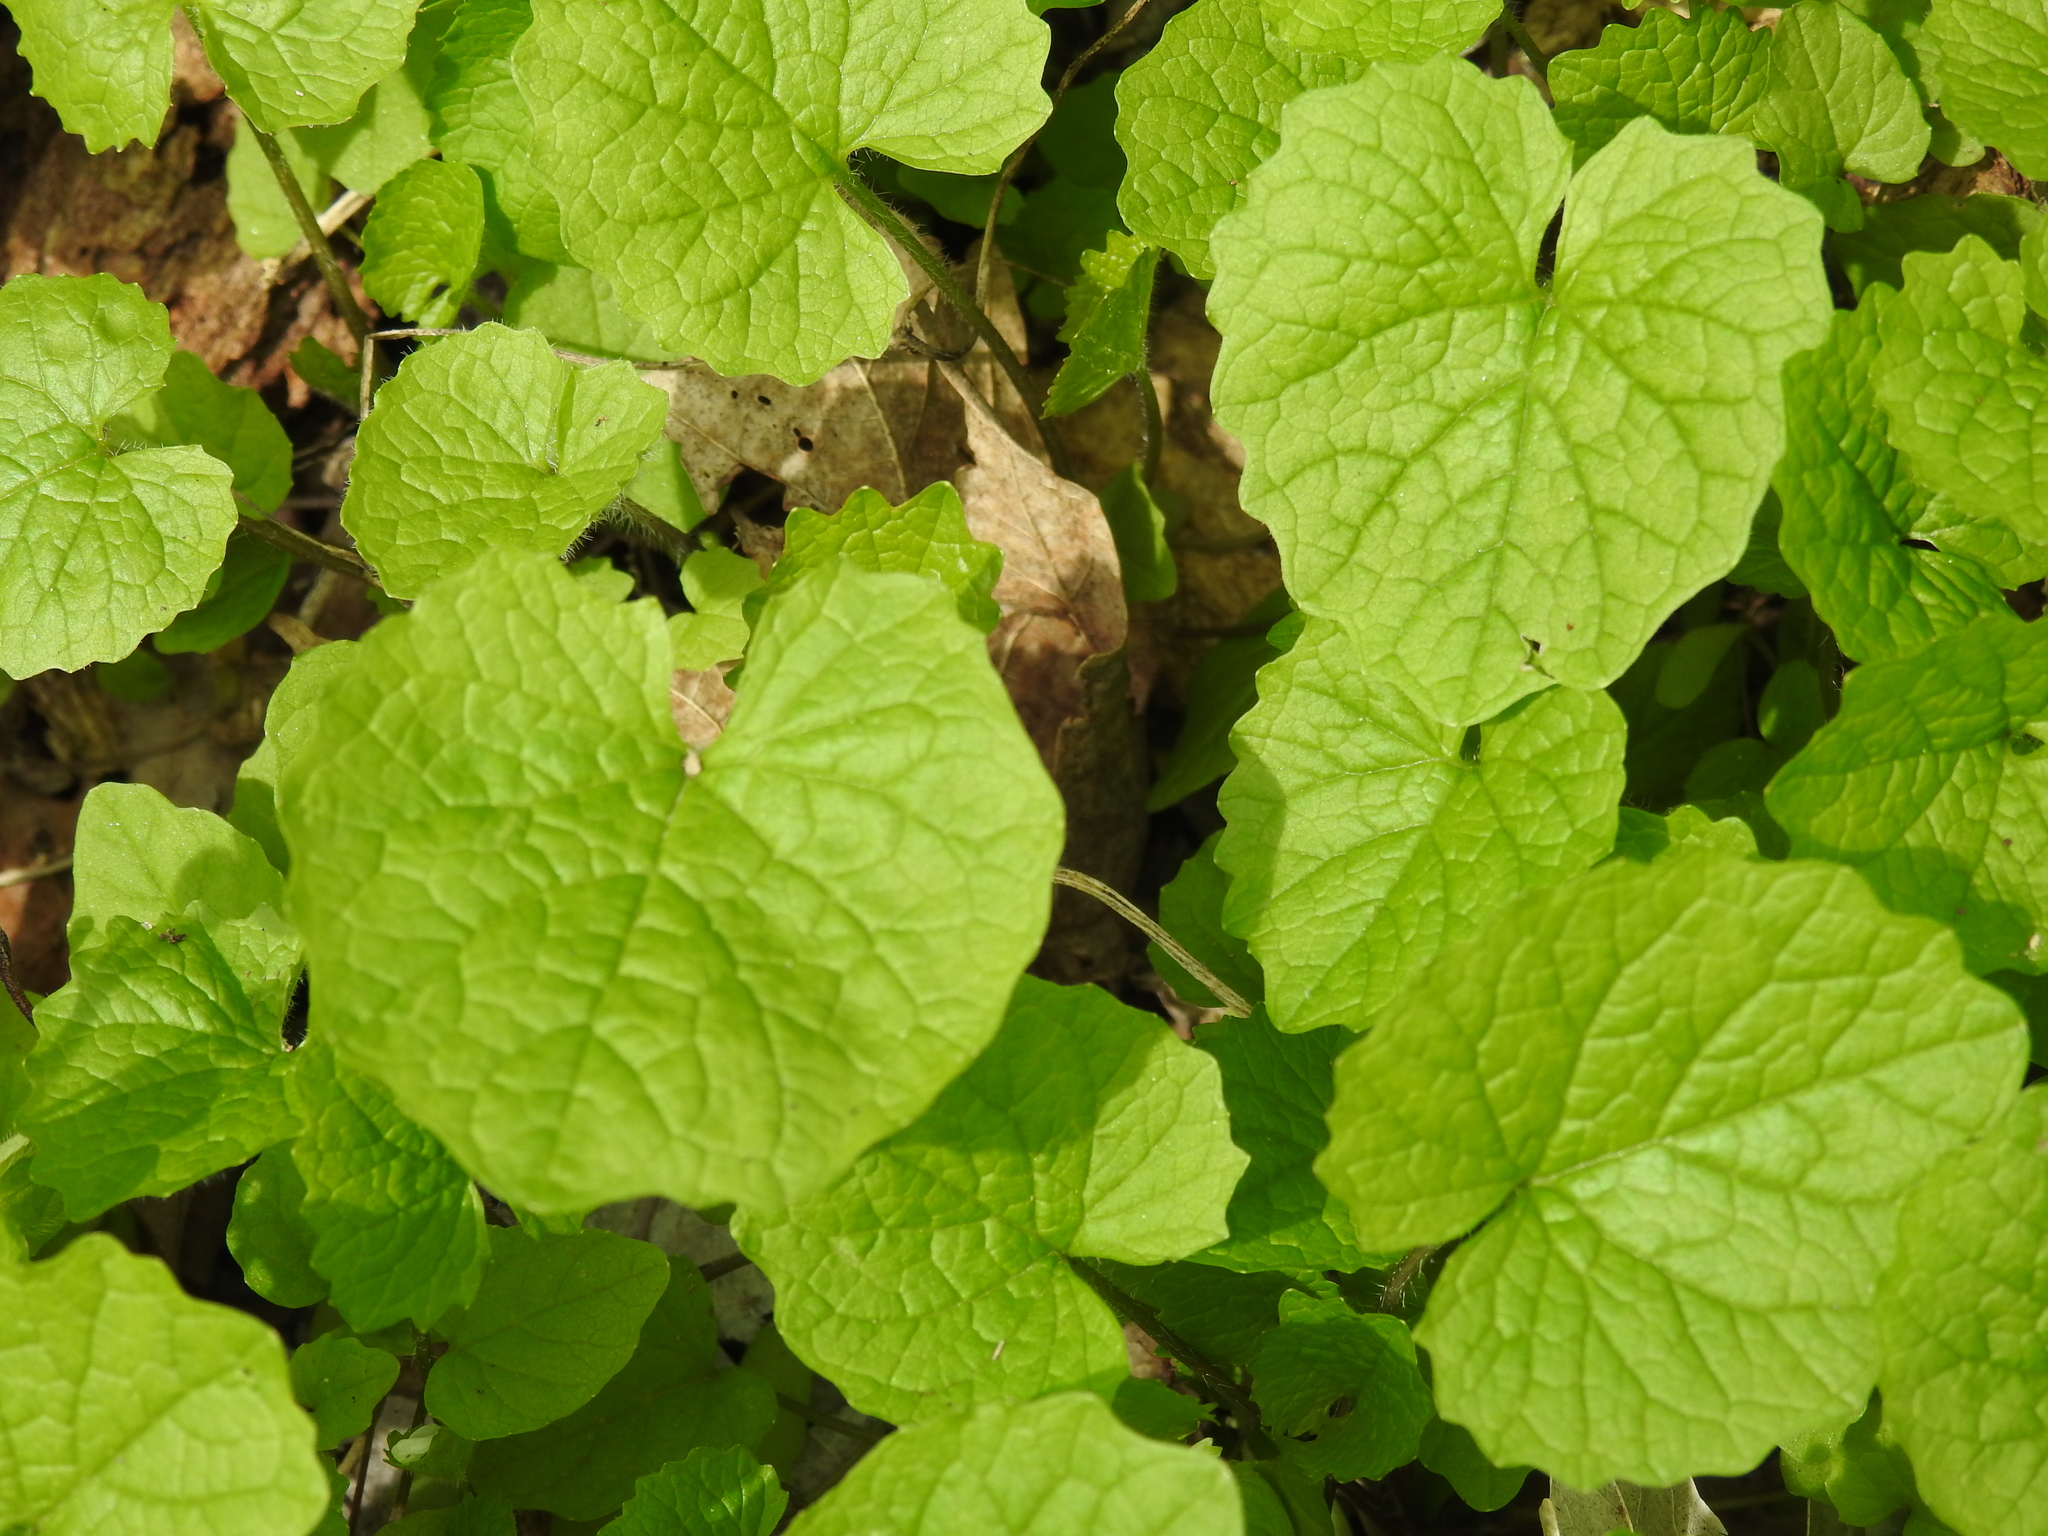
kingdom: Plantae
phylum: Tracheophyta
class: Magnoliopsida
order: Brassicales
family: Brassicaceae
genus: Alliaria
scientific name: Alliaria petiolata
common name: Garlic mustard
